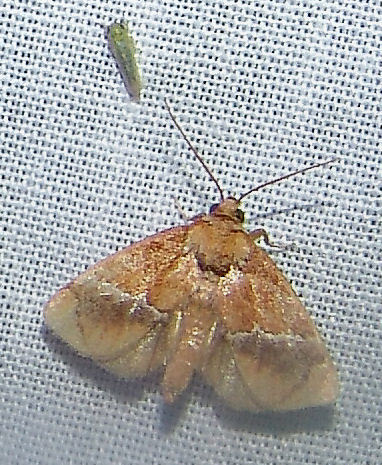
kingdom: Animalia
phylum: Arthropoda
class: Insecta
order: Lepidoptera
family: Limacodidae
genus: Lithacodes
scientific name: Lithacodes fasciola
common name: Yellow-shouldered slug moth
